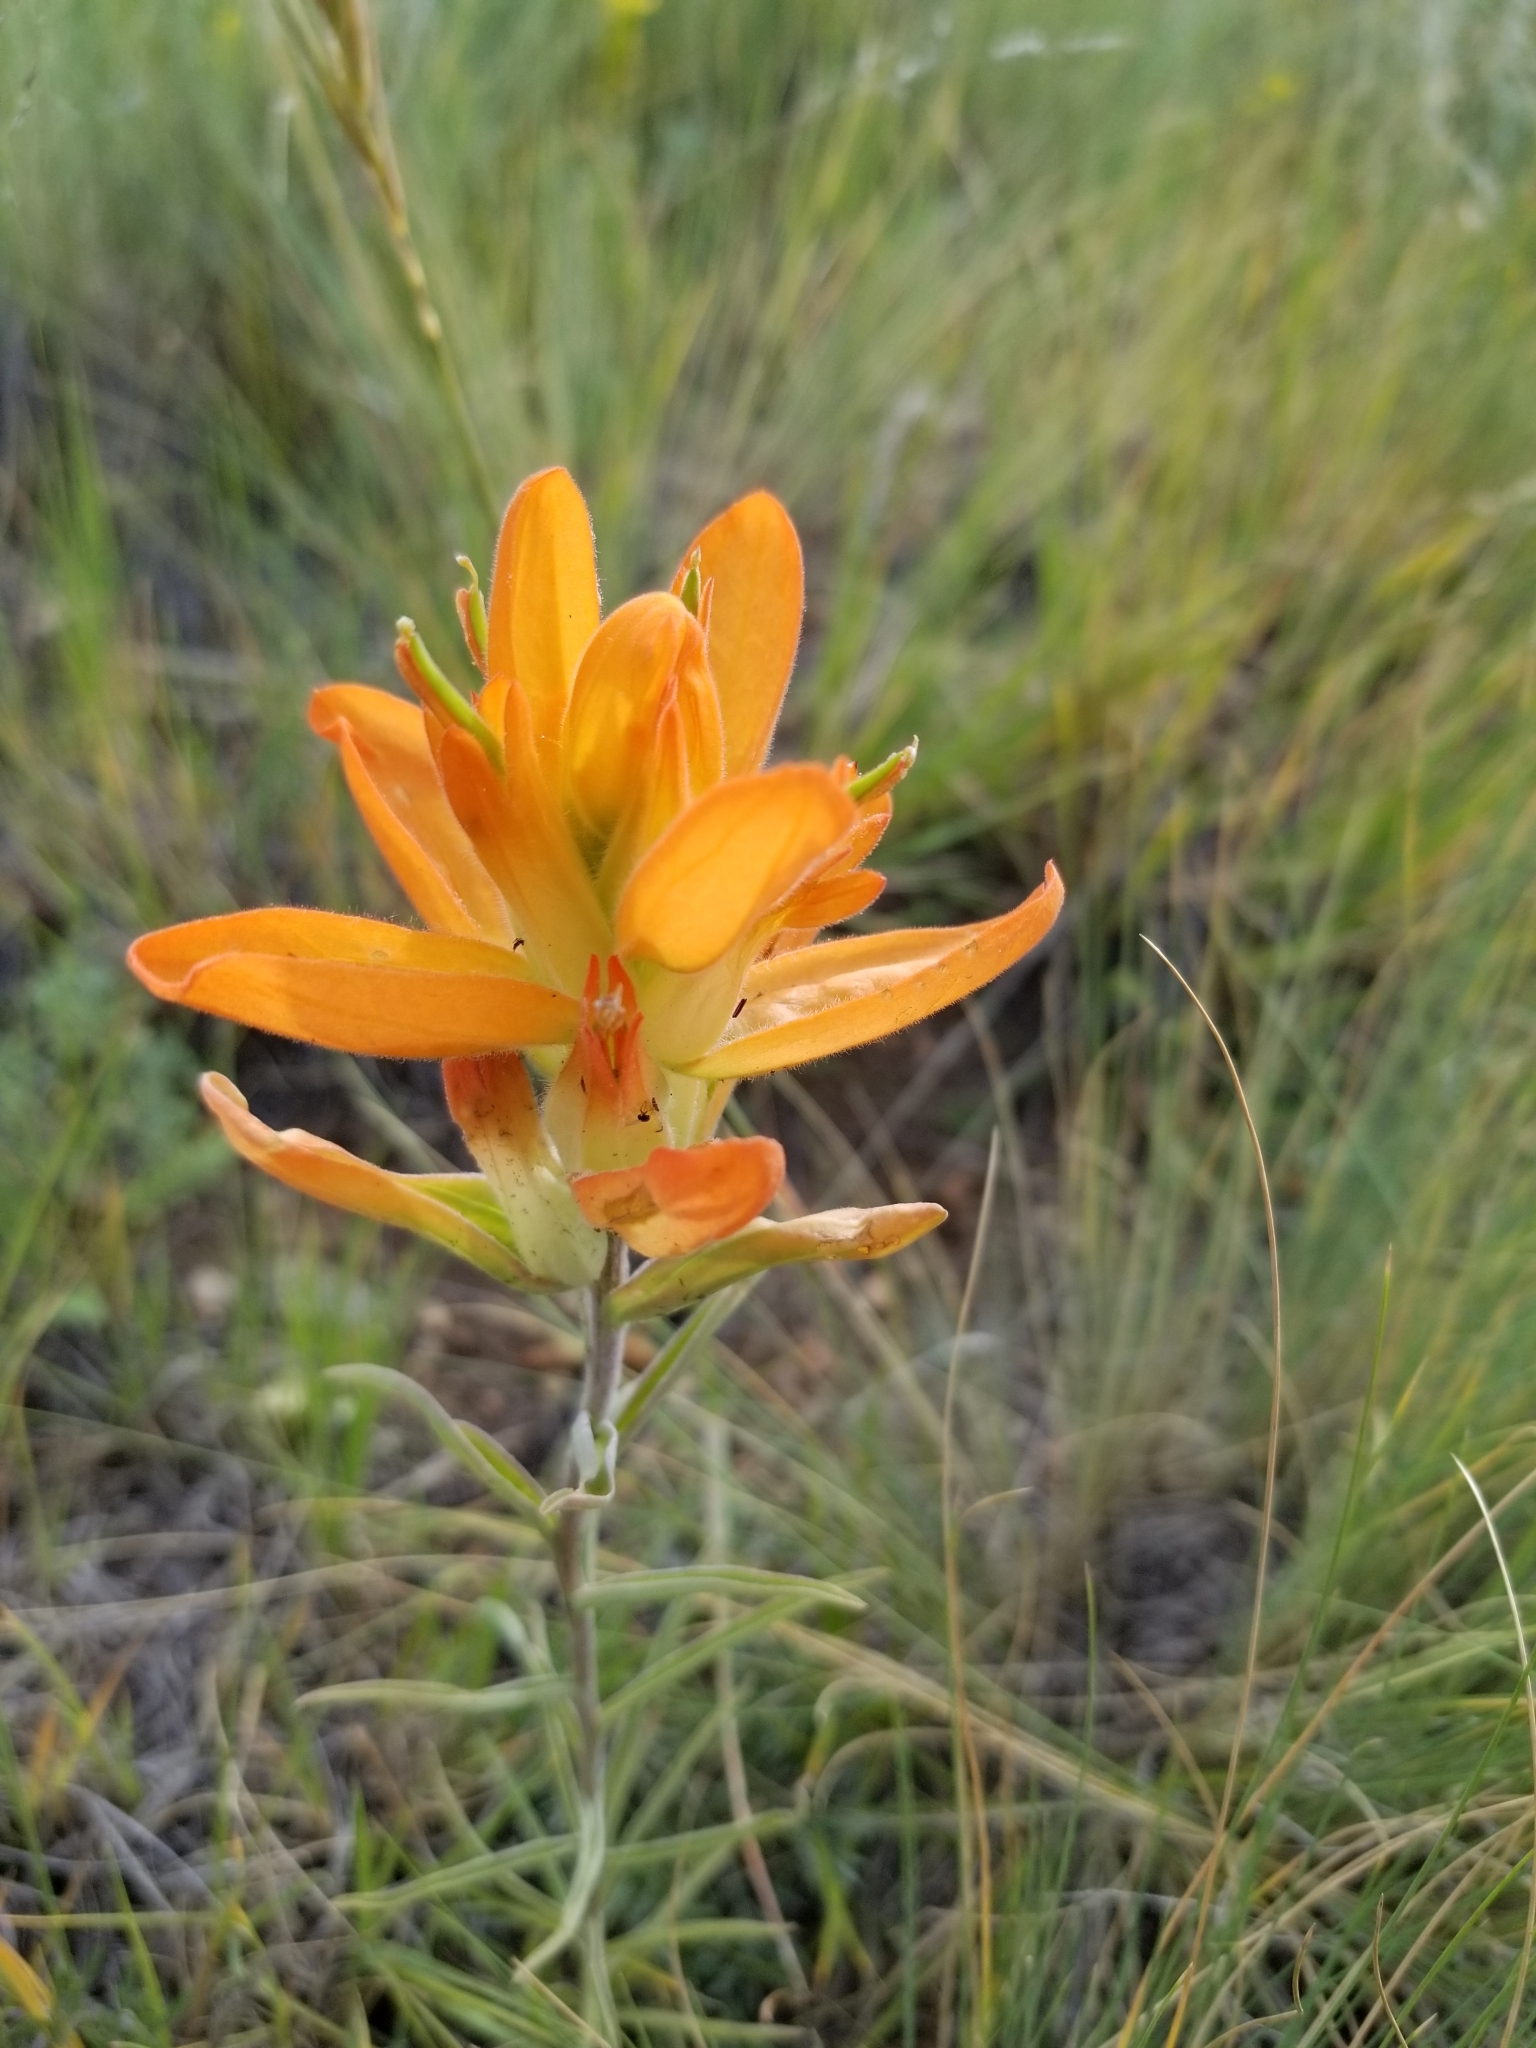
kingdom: Plantae
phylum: Tracheophyta
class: Magnoliopsida
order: Lamiales
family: Orobanchaceae
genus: Castilleja
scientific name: Castilleja integra
